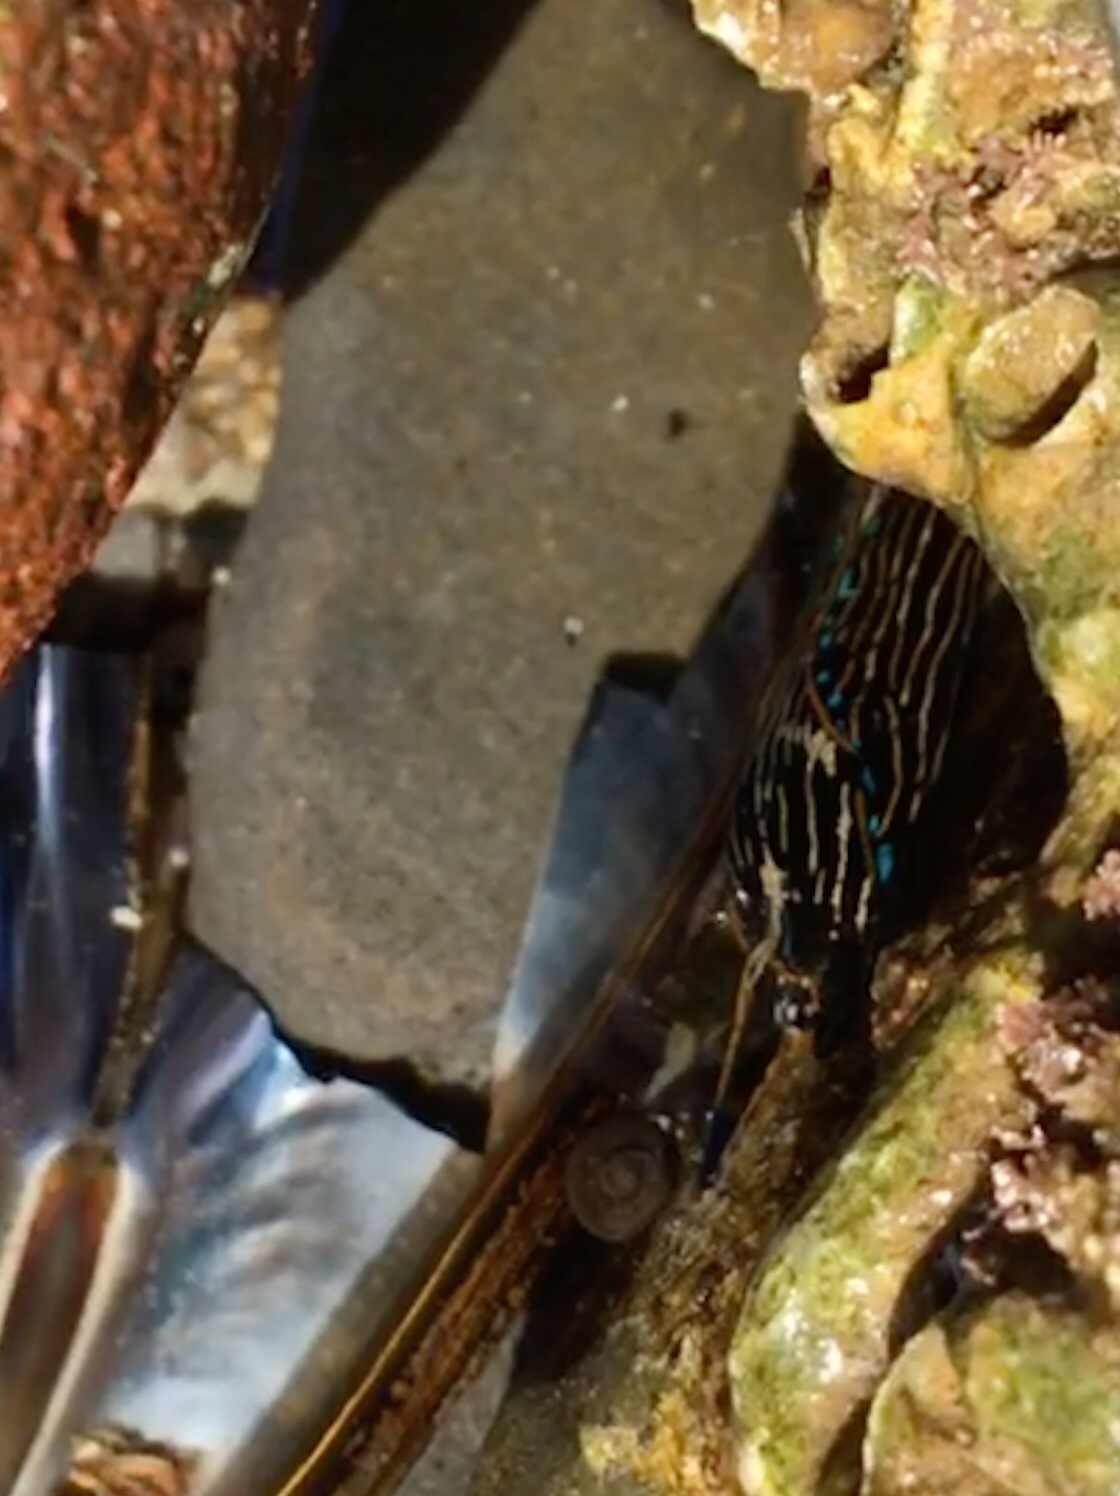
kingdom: Animalia
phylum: Mollusca
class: Gastropoda
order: Cephalaspidea
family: Aglajidae
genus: Navanax
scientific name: Navanax inermis
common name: California aglaja
